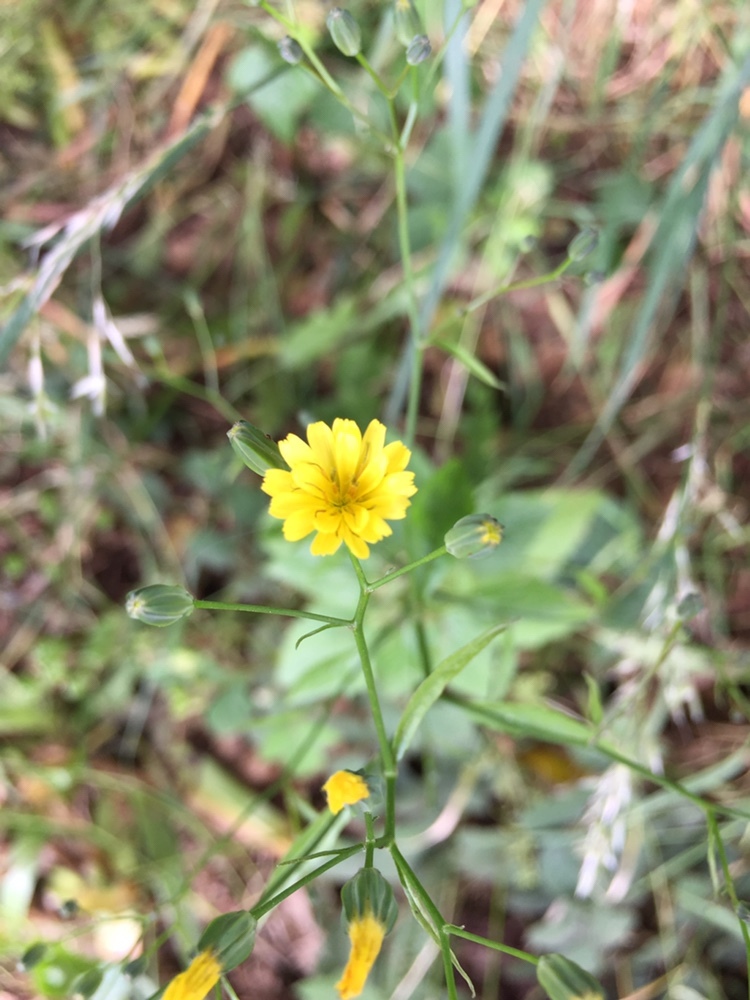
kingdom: Plantae
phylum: Tracheophyta
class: Magnoliopsida
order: Asterales
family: Asteraceae
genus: Lapsana
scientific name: Lapsana communis
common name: Nipplewort
